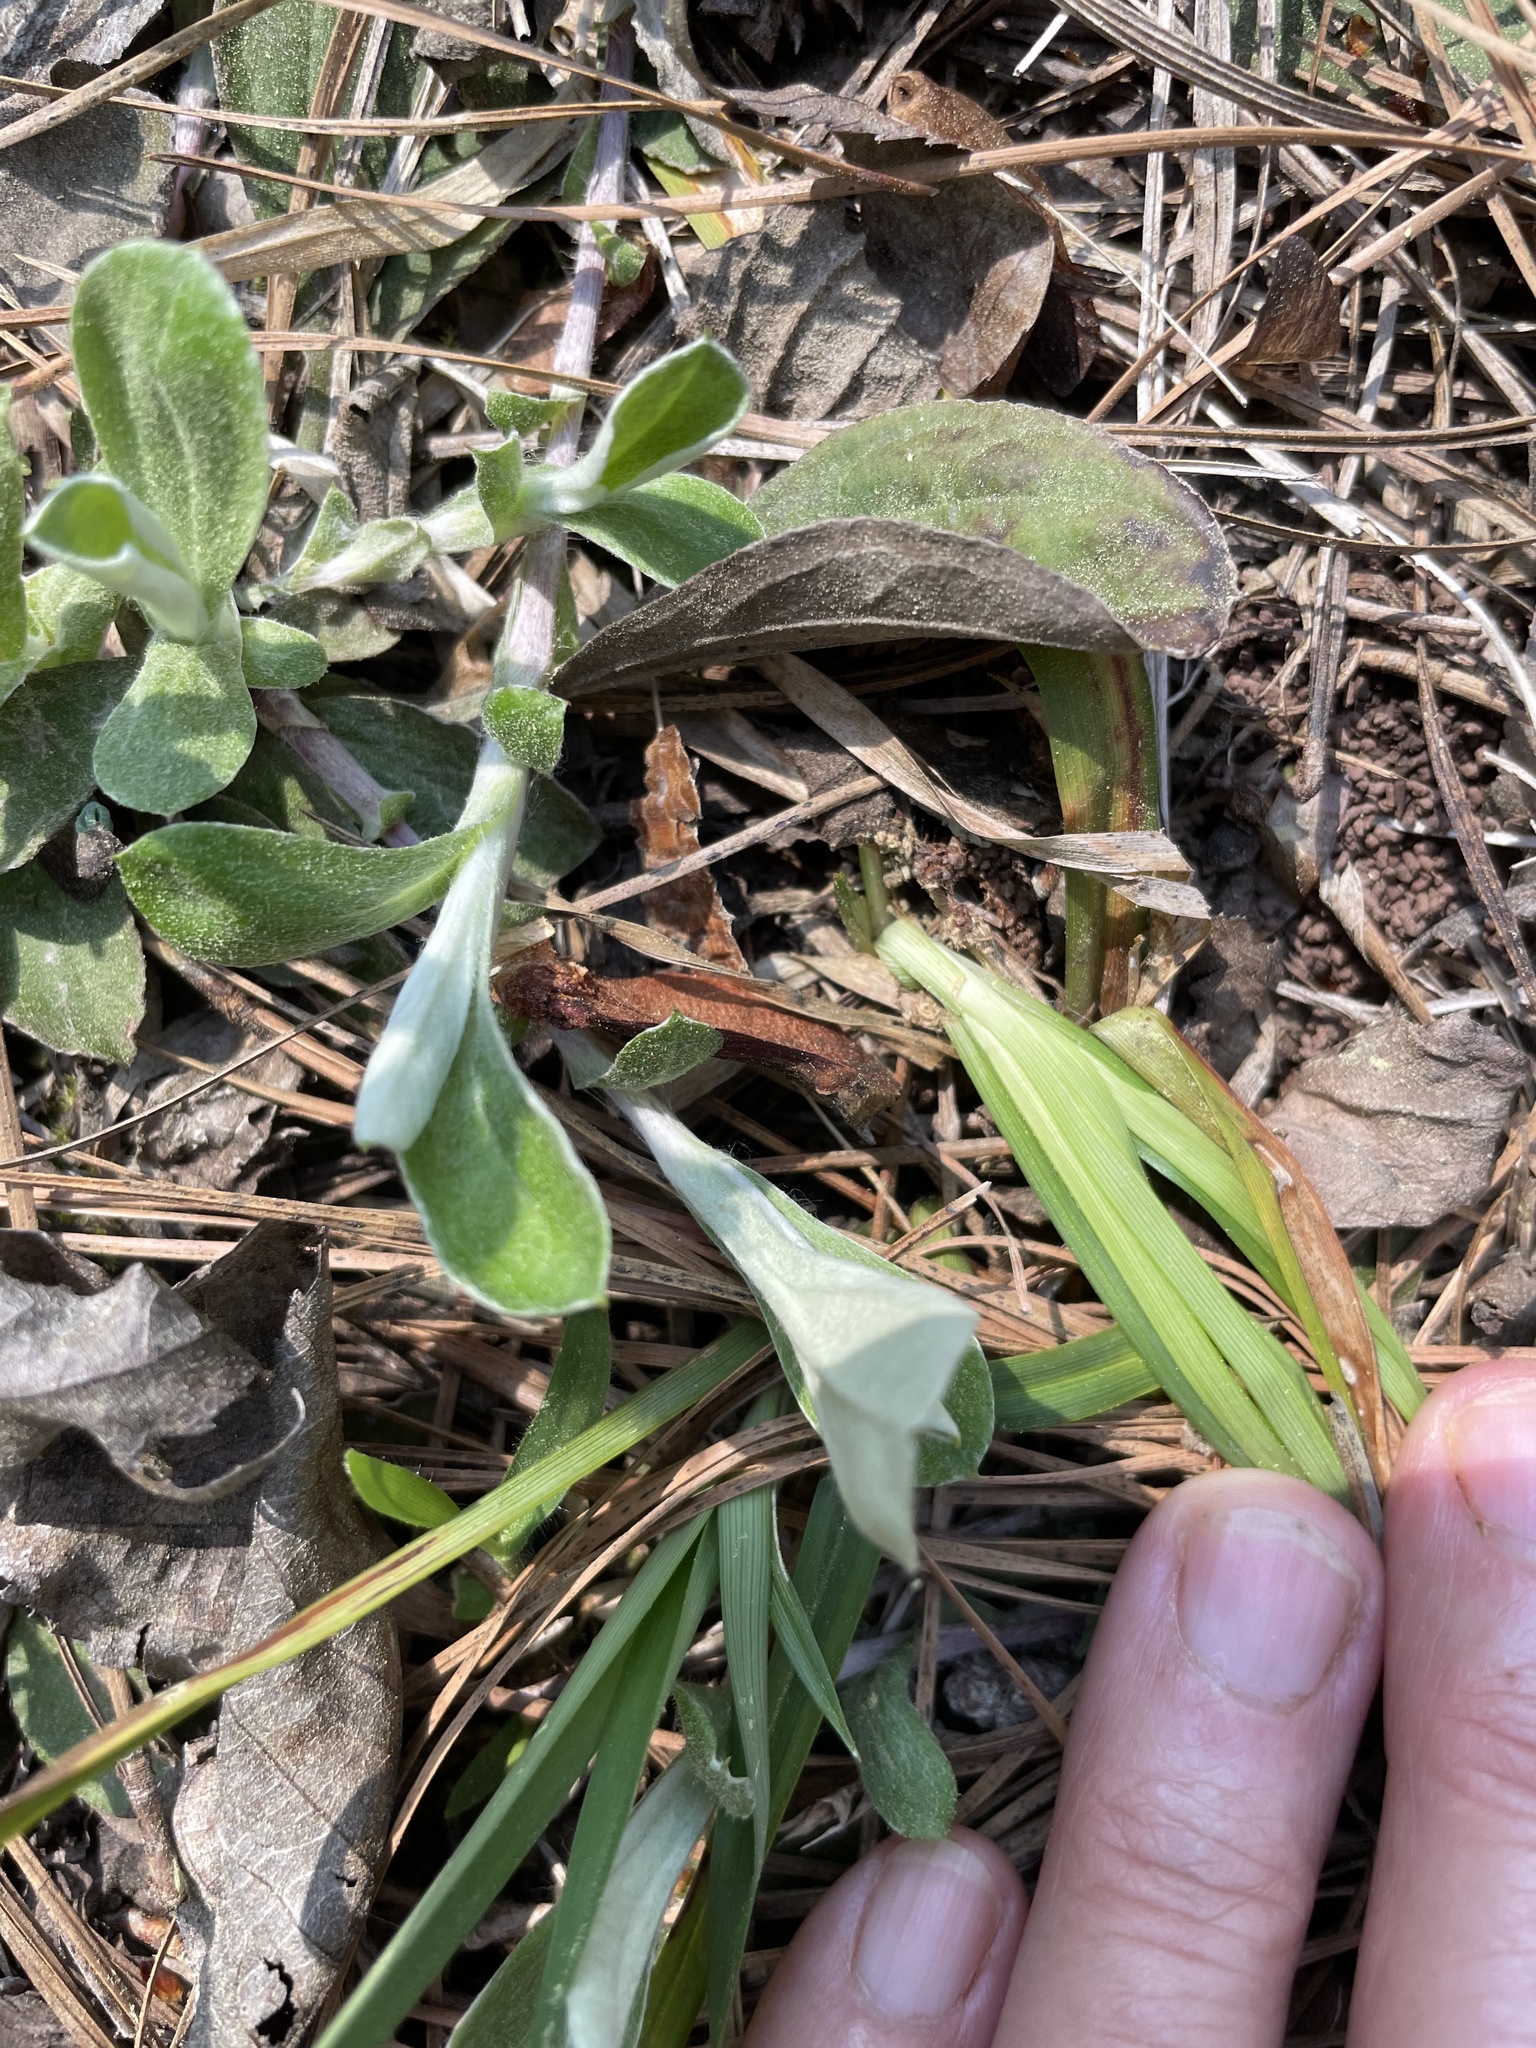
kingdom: Plantae
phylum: Tracheophyta
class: Magnoliopsida
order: Asterales
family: Asteraceae
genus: Antennaria
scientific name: Antennaria parlinii
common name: Parlin's pussytoes
